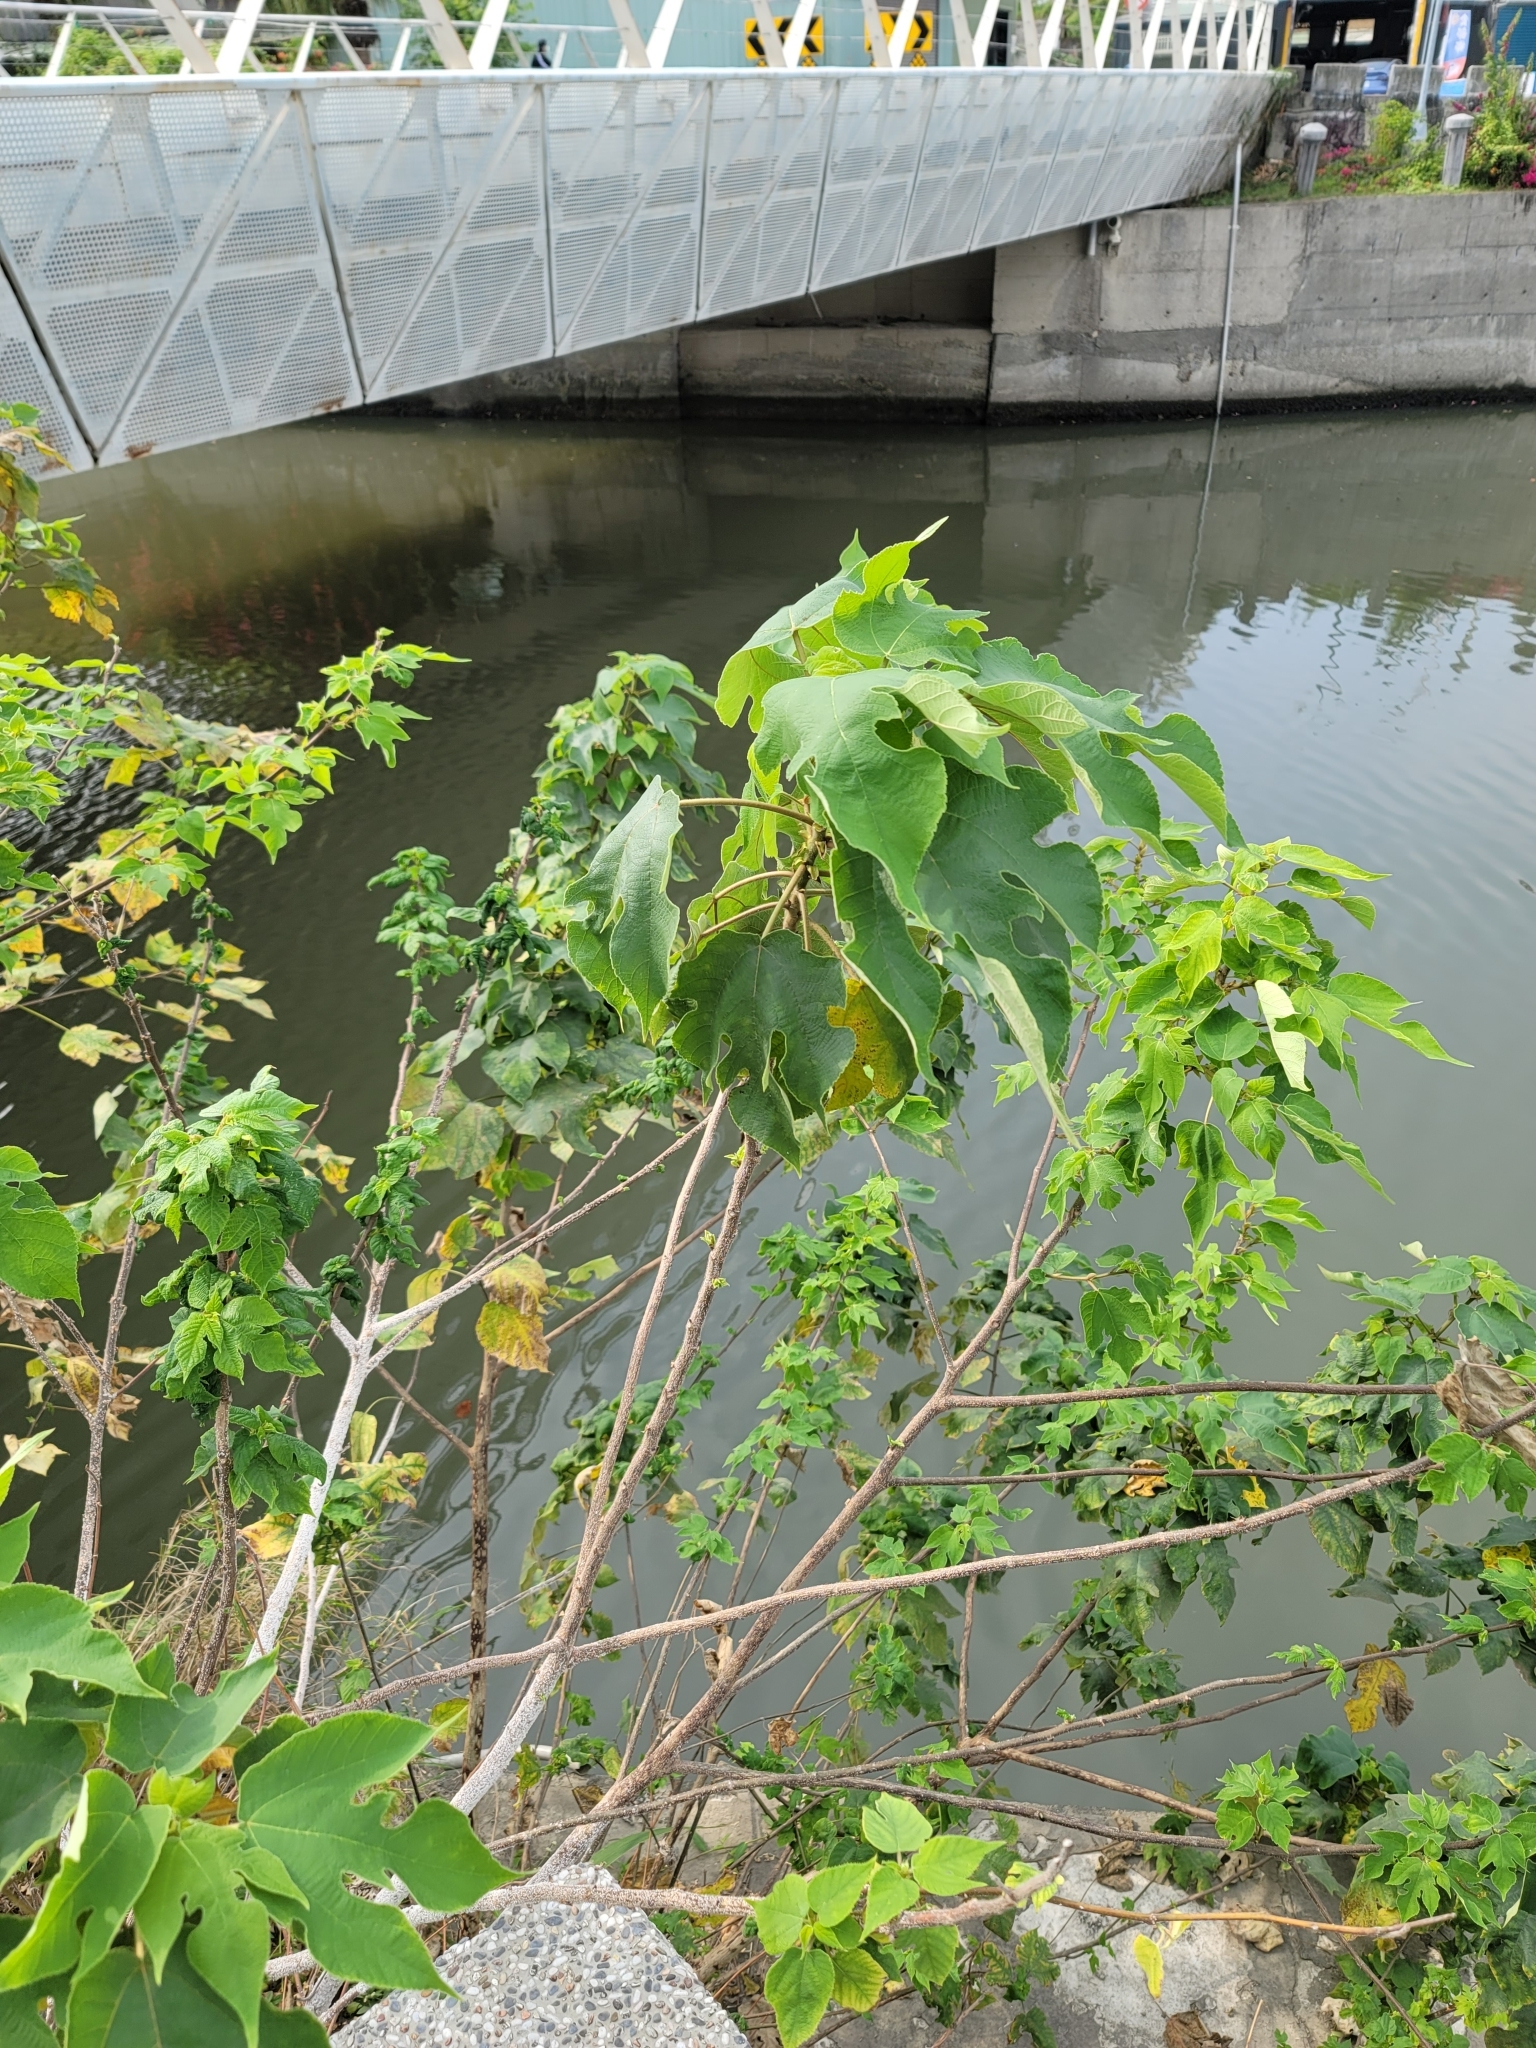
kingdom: Plantae
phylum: Tracheophyta
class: Magnoliopsida
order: Rosales
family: Moraceae
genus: Broussonetia
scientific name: Broussonetia papyrifera
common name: Paper mulberry
